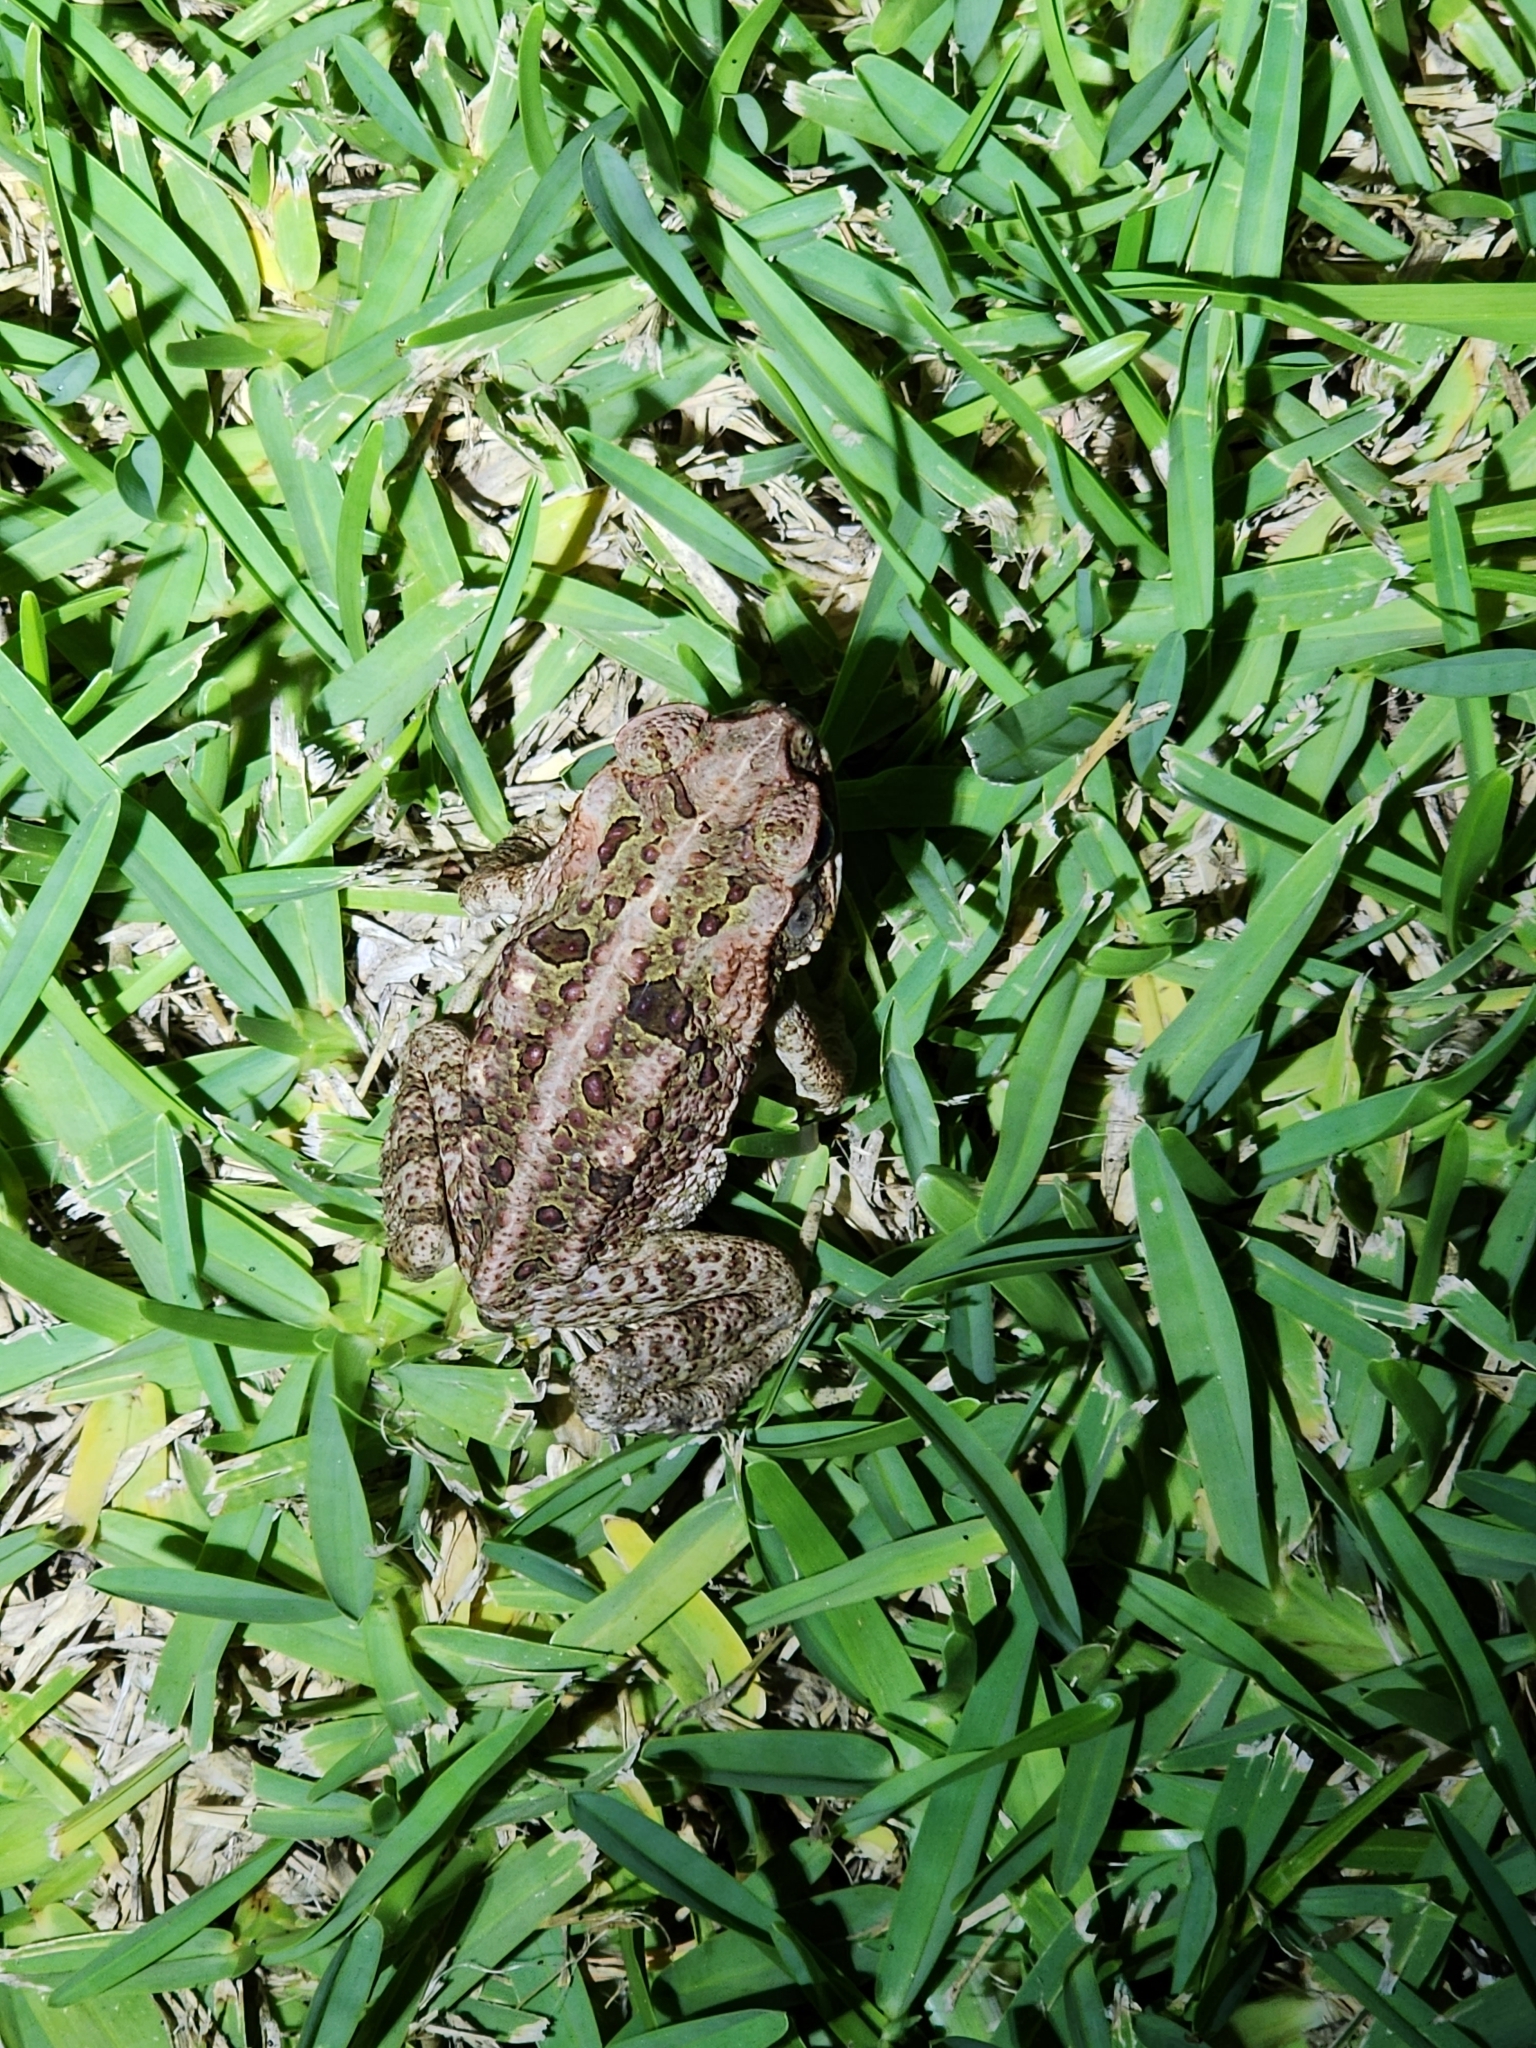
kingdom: Animalia
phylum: Chordata
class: Amphibia
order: Anura
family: Bufonidae
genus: Rhinella
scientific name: Rhinella marina
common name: Cane toad
